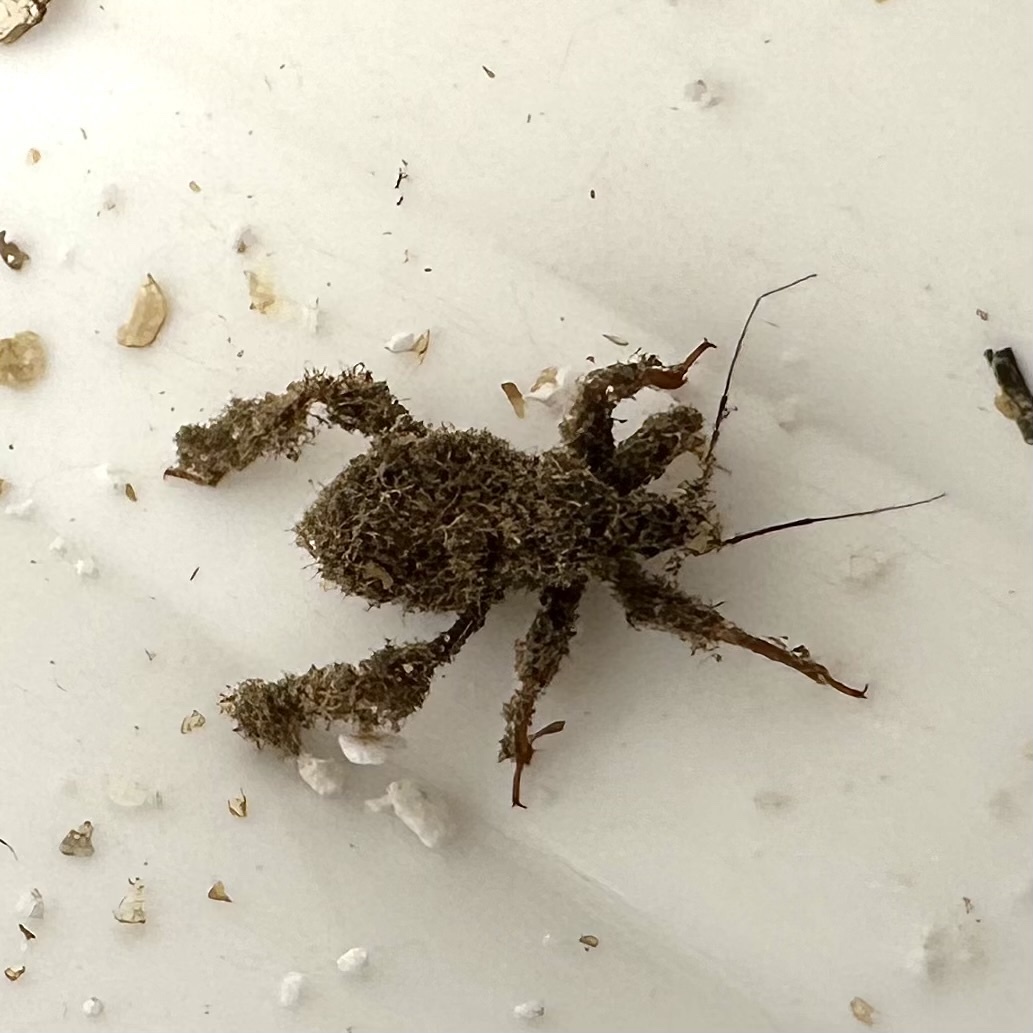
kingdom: Animalia
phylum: Arthropoda
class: Insecta
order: Hemiptera
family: Reduviidae
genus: Reduvius
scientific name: Reduvius personatus
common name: Masked hunter
